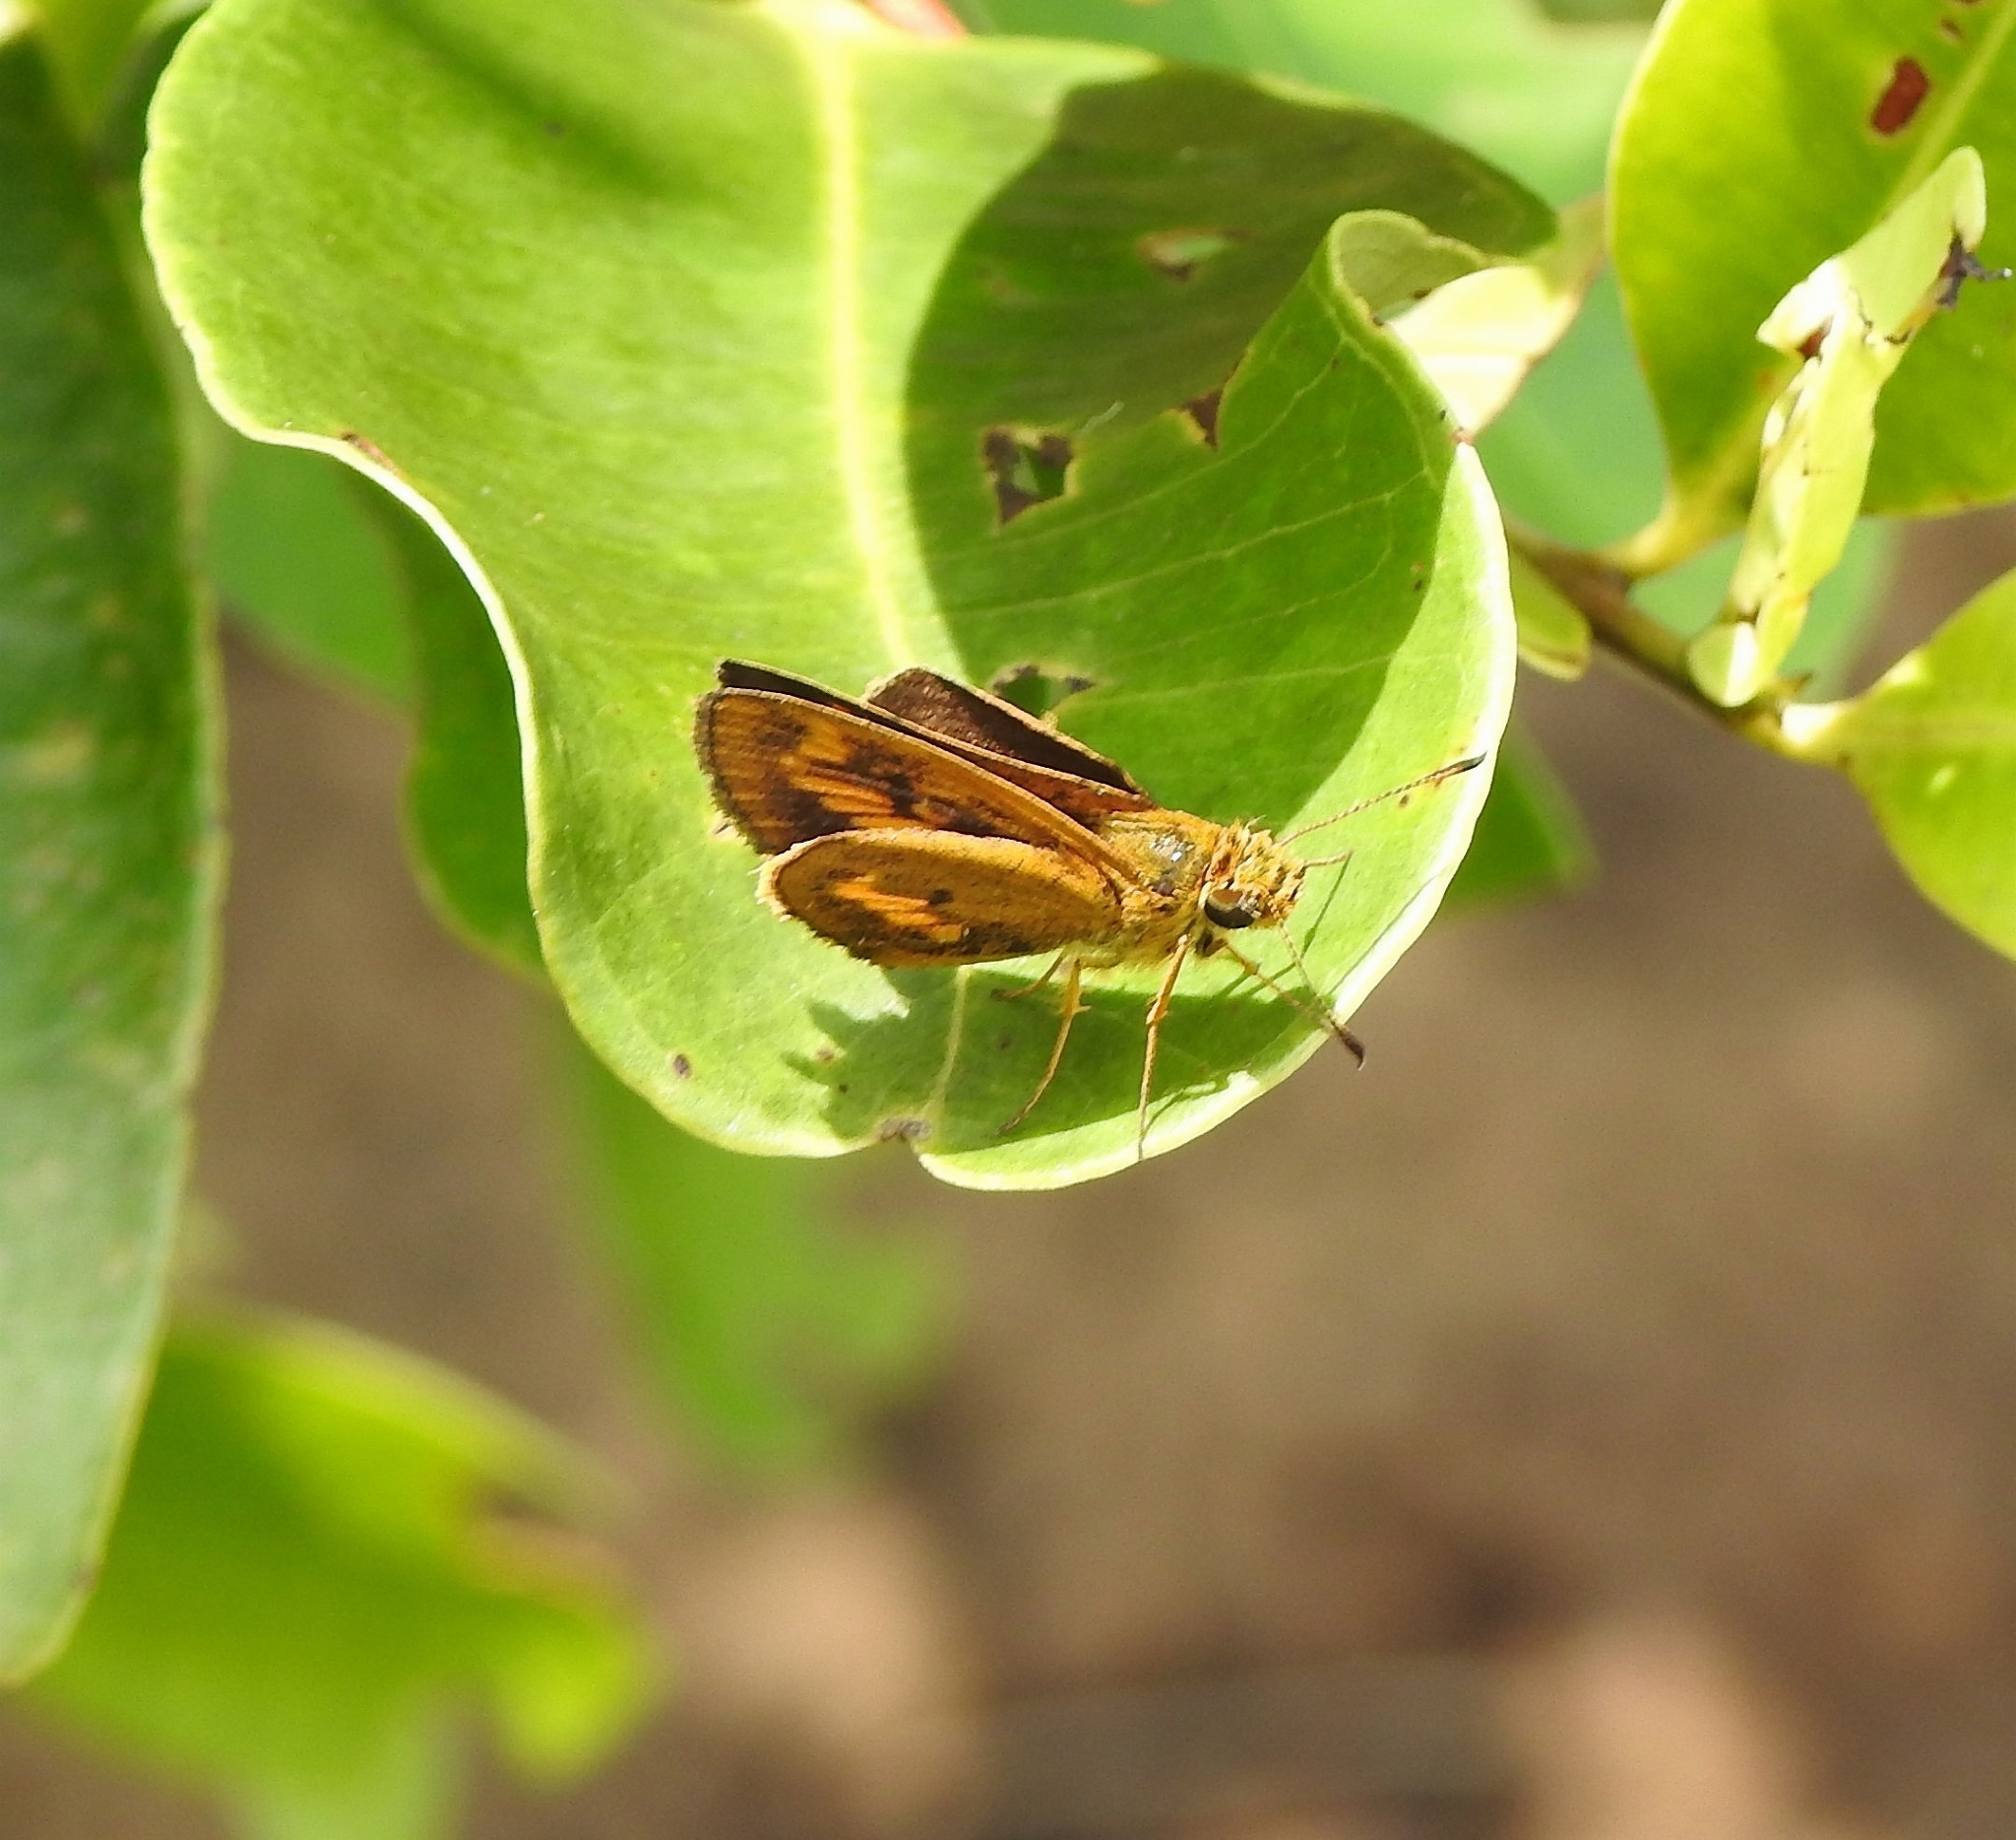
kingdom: Animalia
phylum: Arthropoda
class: Insecta
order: Lepidoptera
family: Hesperiidae
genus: Oriens
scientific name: Oriens goloides
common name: Smaller dartlet
